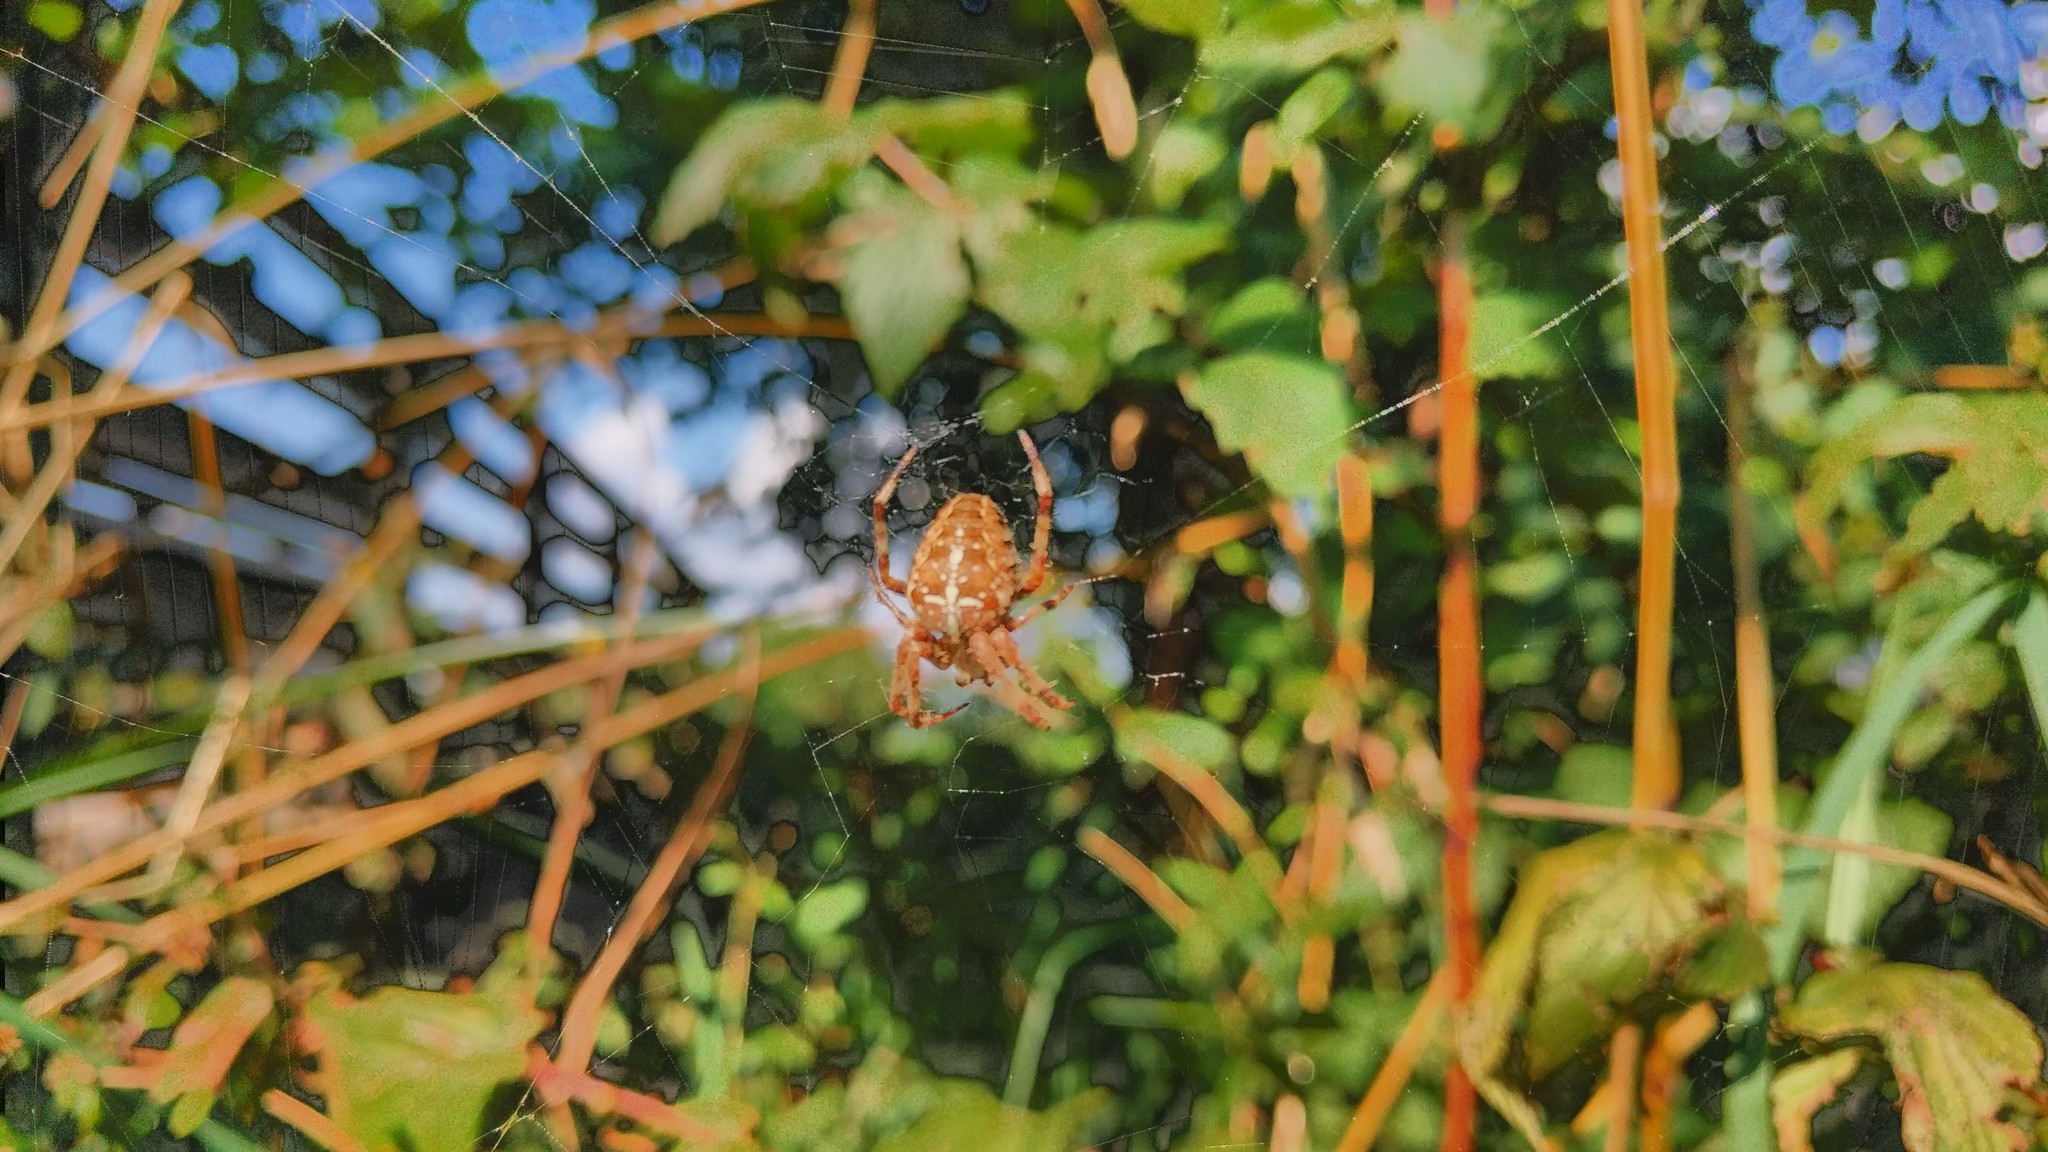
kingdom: Animalia
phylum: Arthropoda
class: Arachnida
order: Araneae
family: Araneidae
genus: Araneus
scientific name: Araneus diadematus
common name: Cross orbweaver
